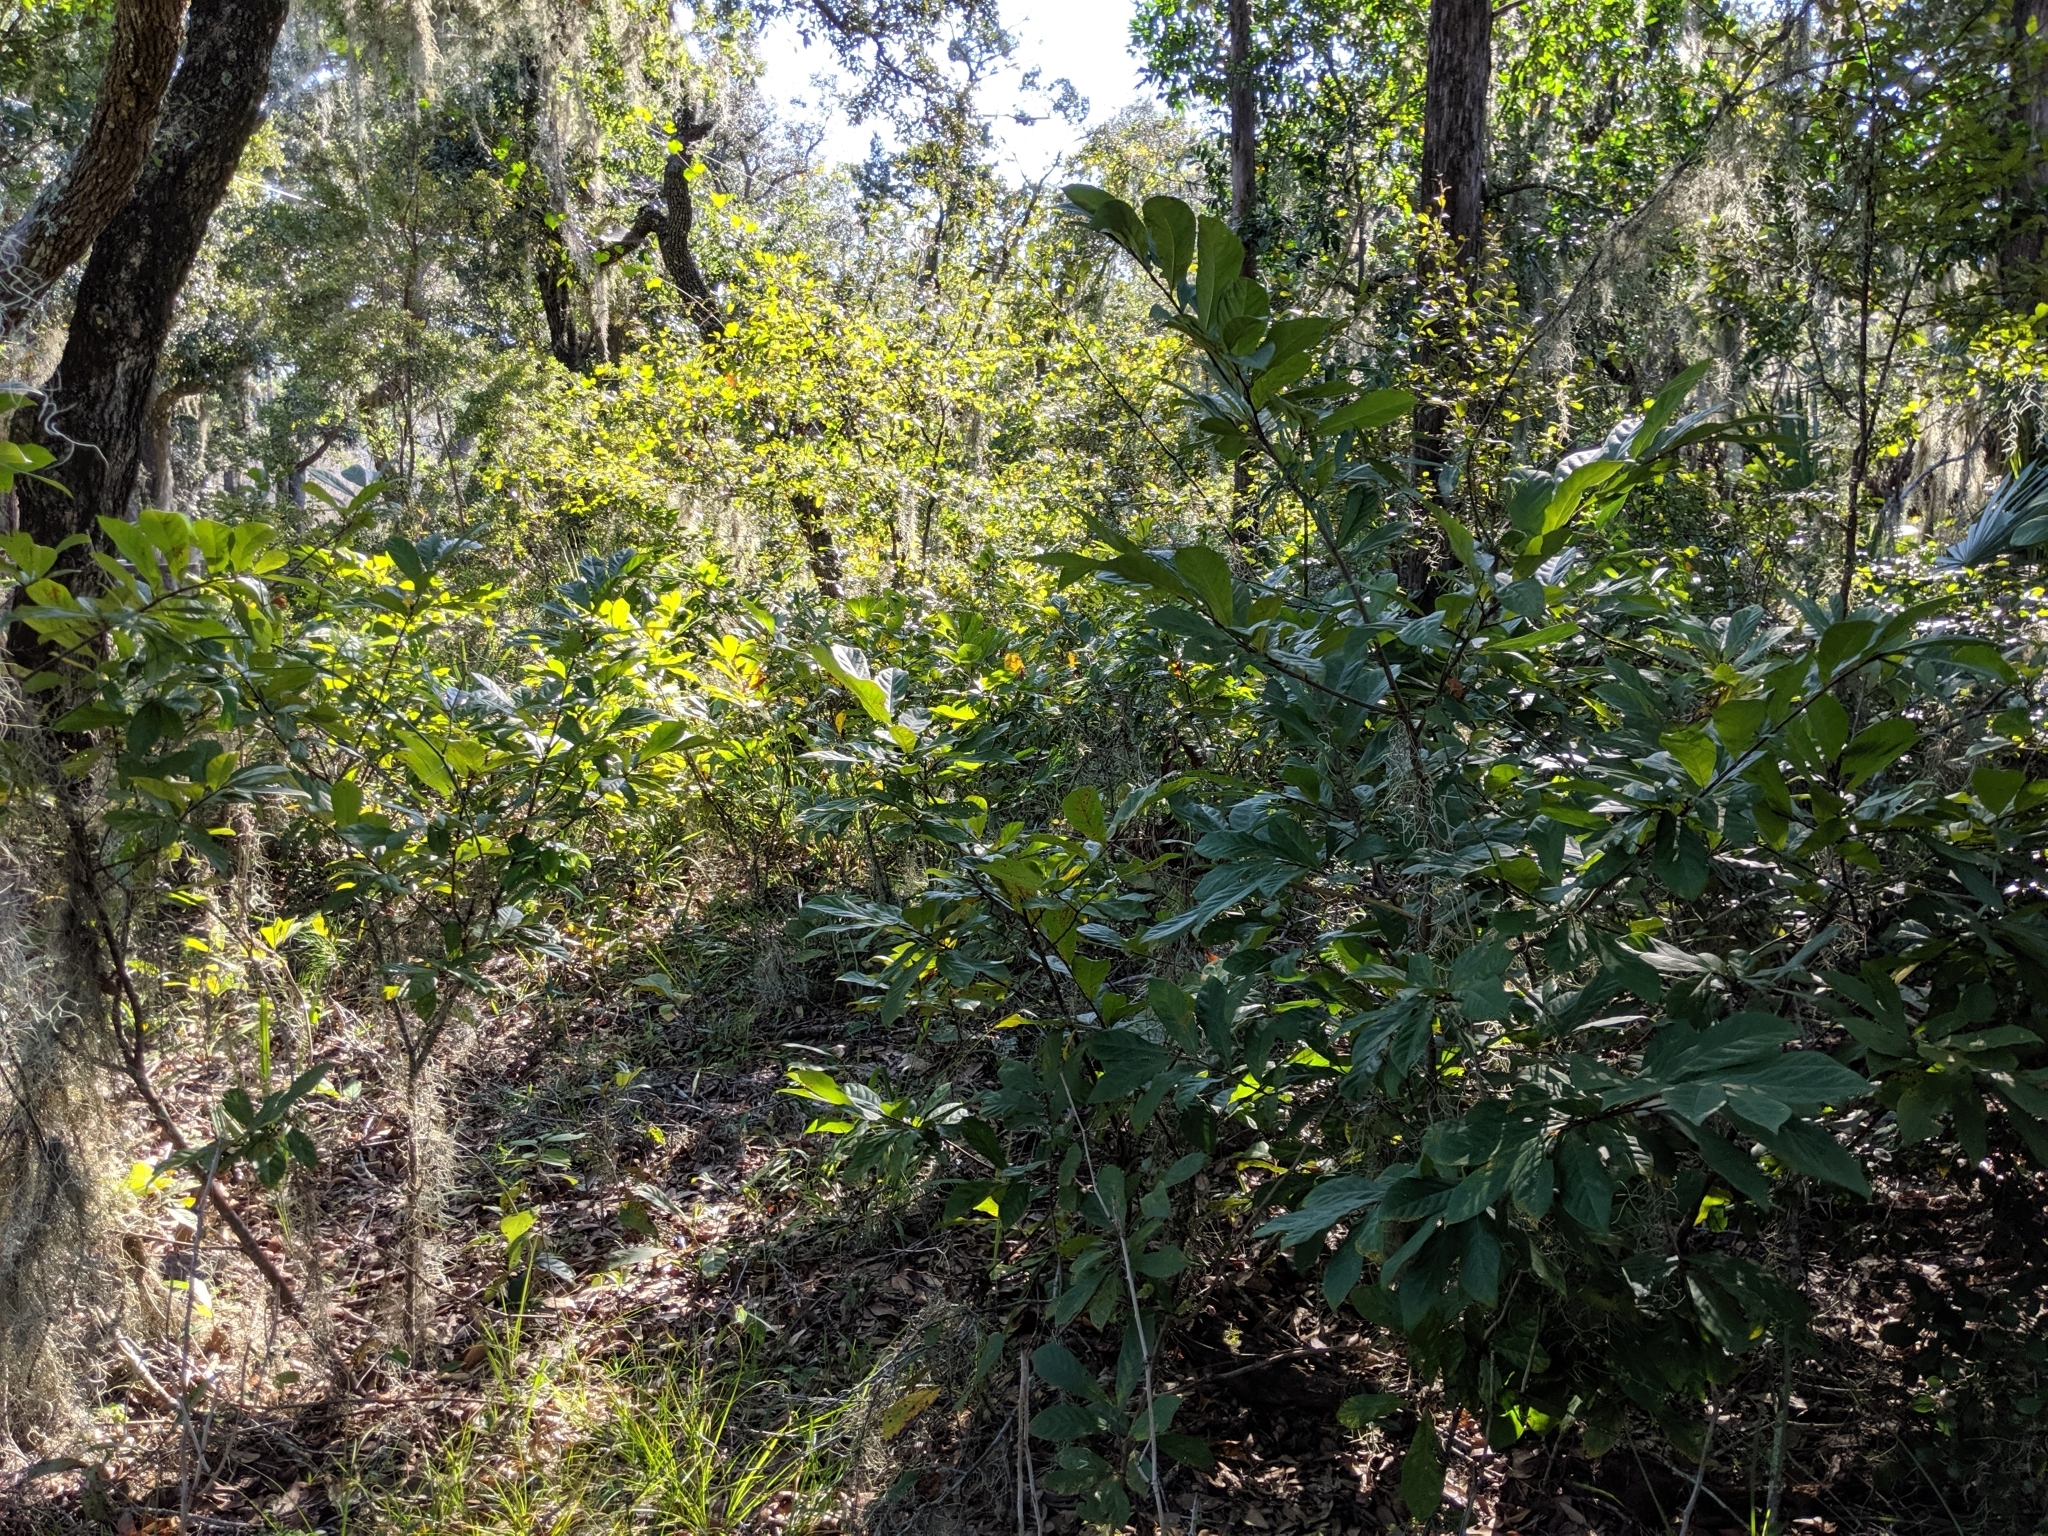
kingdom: Plantae
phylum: Tracheophyta
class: Magnoliopsida
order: Magnoliales
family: Annonaceae
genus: Asimina
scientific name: Asimina parviflora
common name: Dwarf pawpaw
